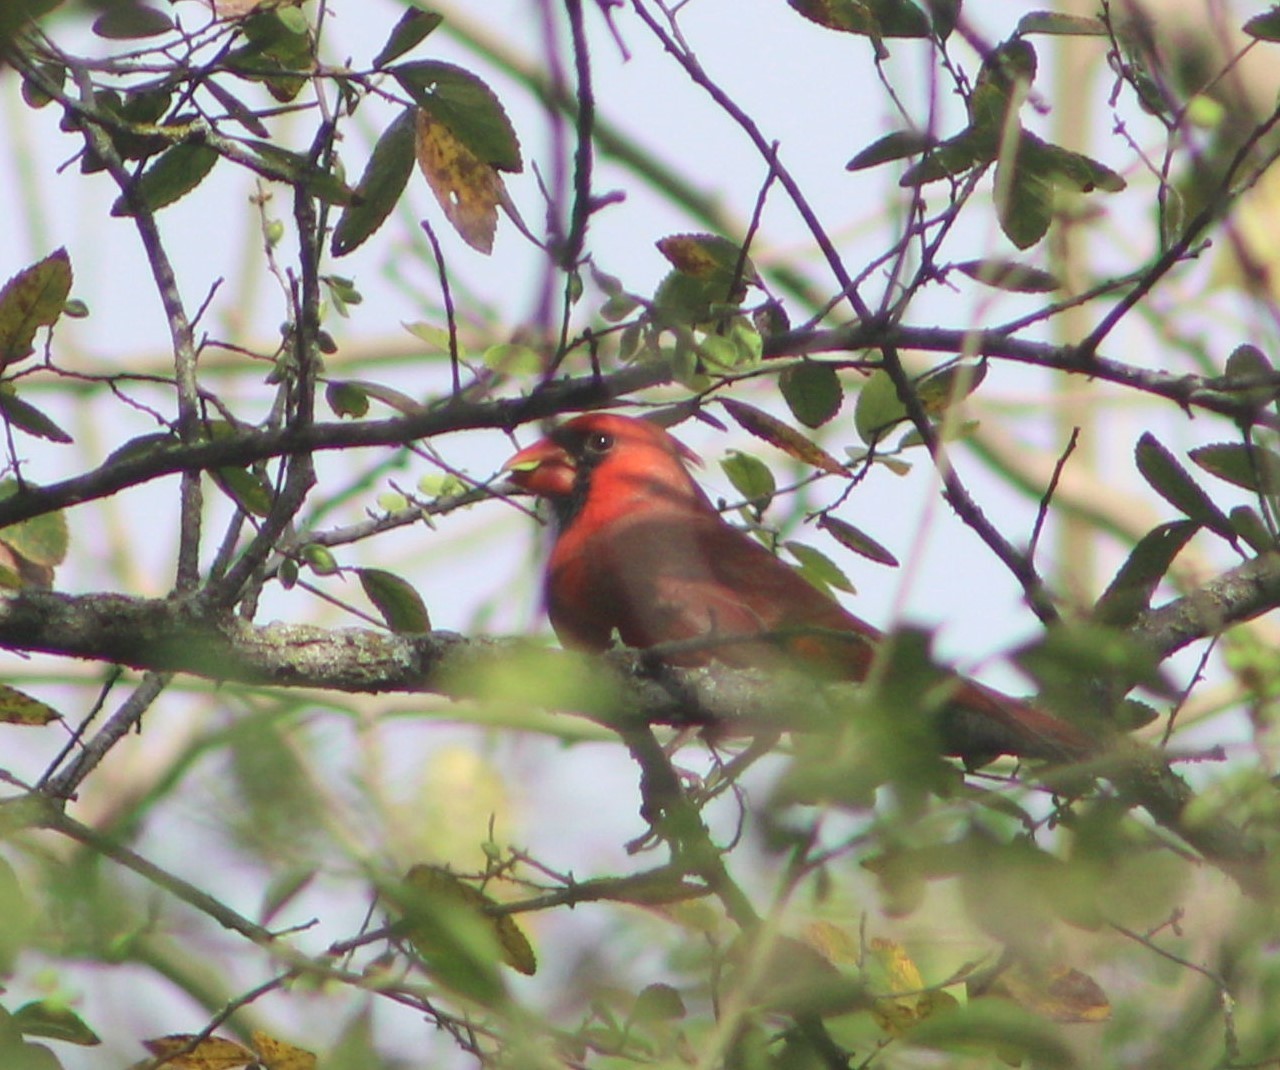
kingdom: Animalia
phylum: Chordata
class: Aves
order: Passeriformes
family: Cardinalidae
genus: Cardinalis
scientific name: Cardinalis cardinalis
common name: Northern cardinal
